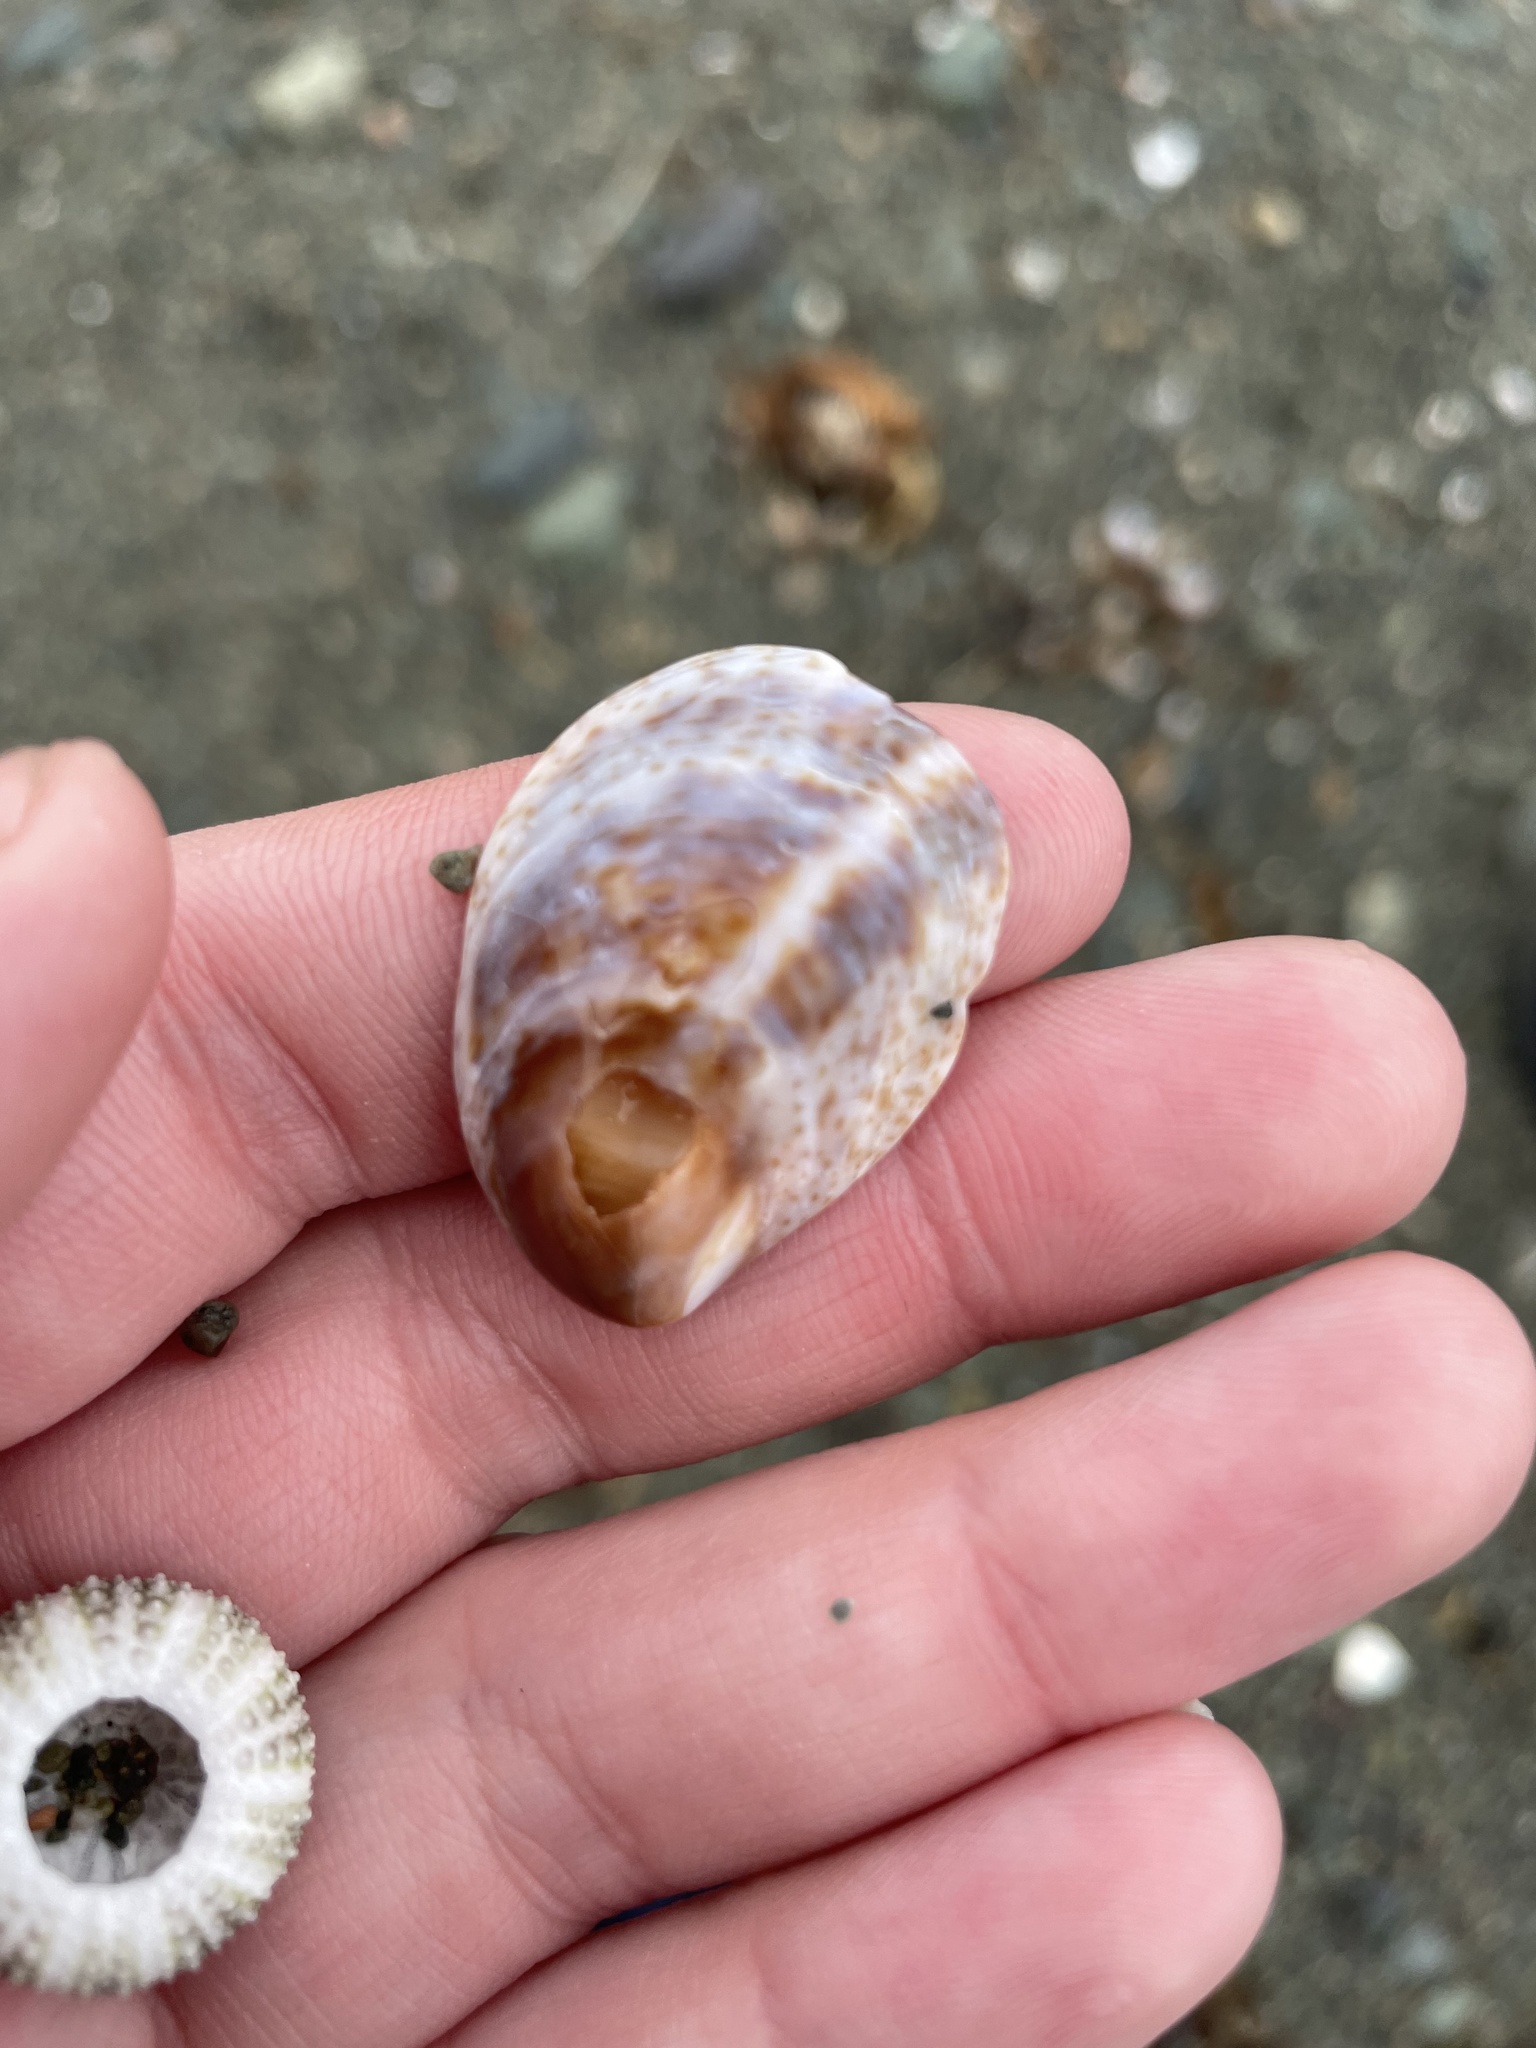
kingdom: Animalia
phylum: Mollusca
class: Gastropoda
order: Littorinimorpha
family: Calyptraeidae
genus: Crepidula
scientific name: Crepidula fornicata
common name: Slipper limpet
